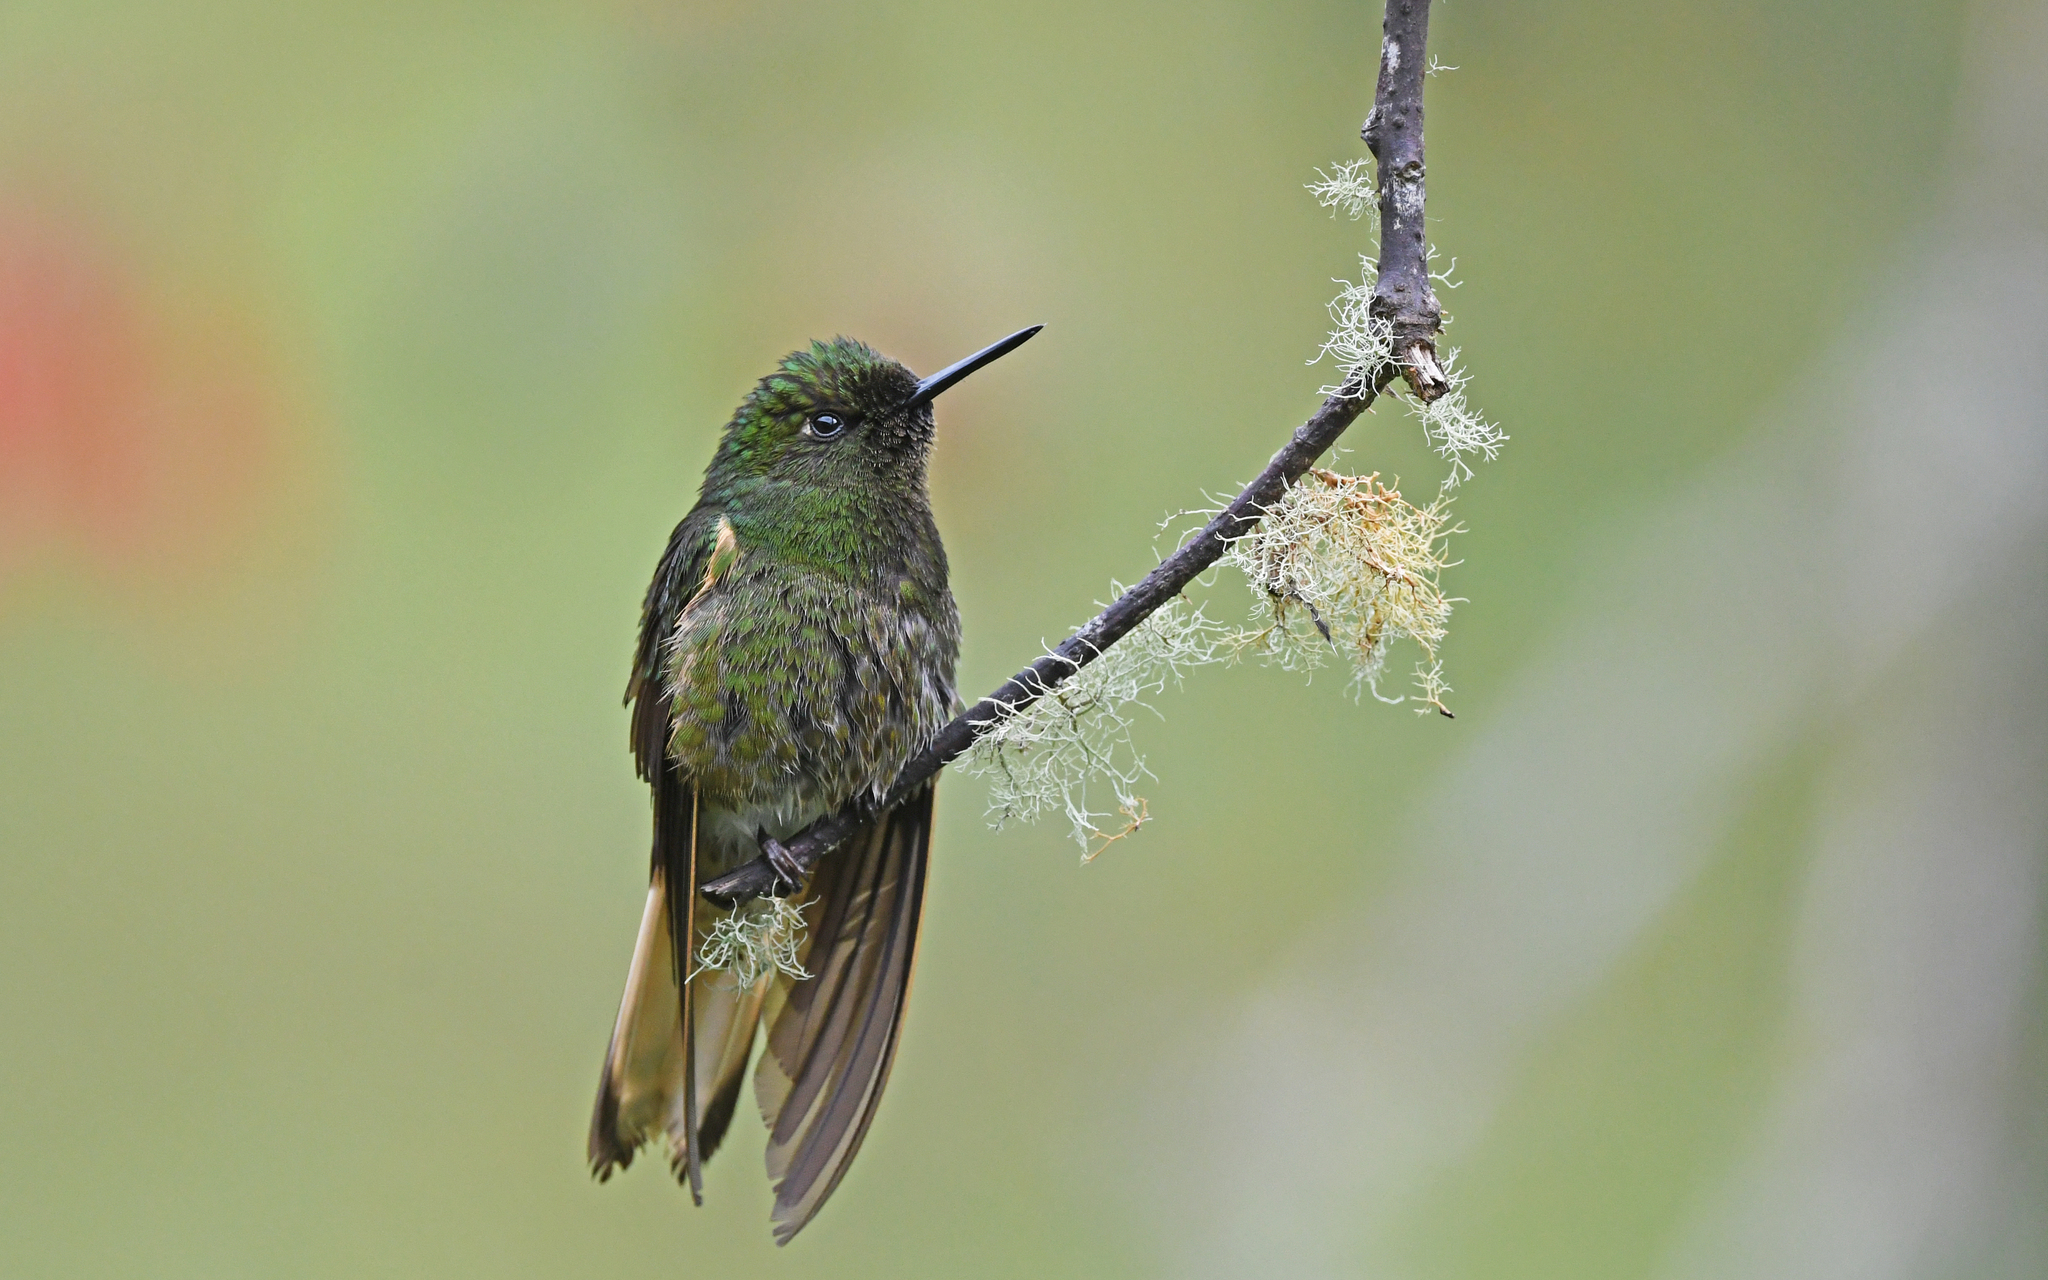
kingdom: Animalia
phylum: Chordata
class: Aves
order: Apodiformes
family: Trochilidae
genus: Boissonneaua
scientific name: Boissonneaua flavescens
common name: Buff-tailed coronet
